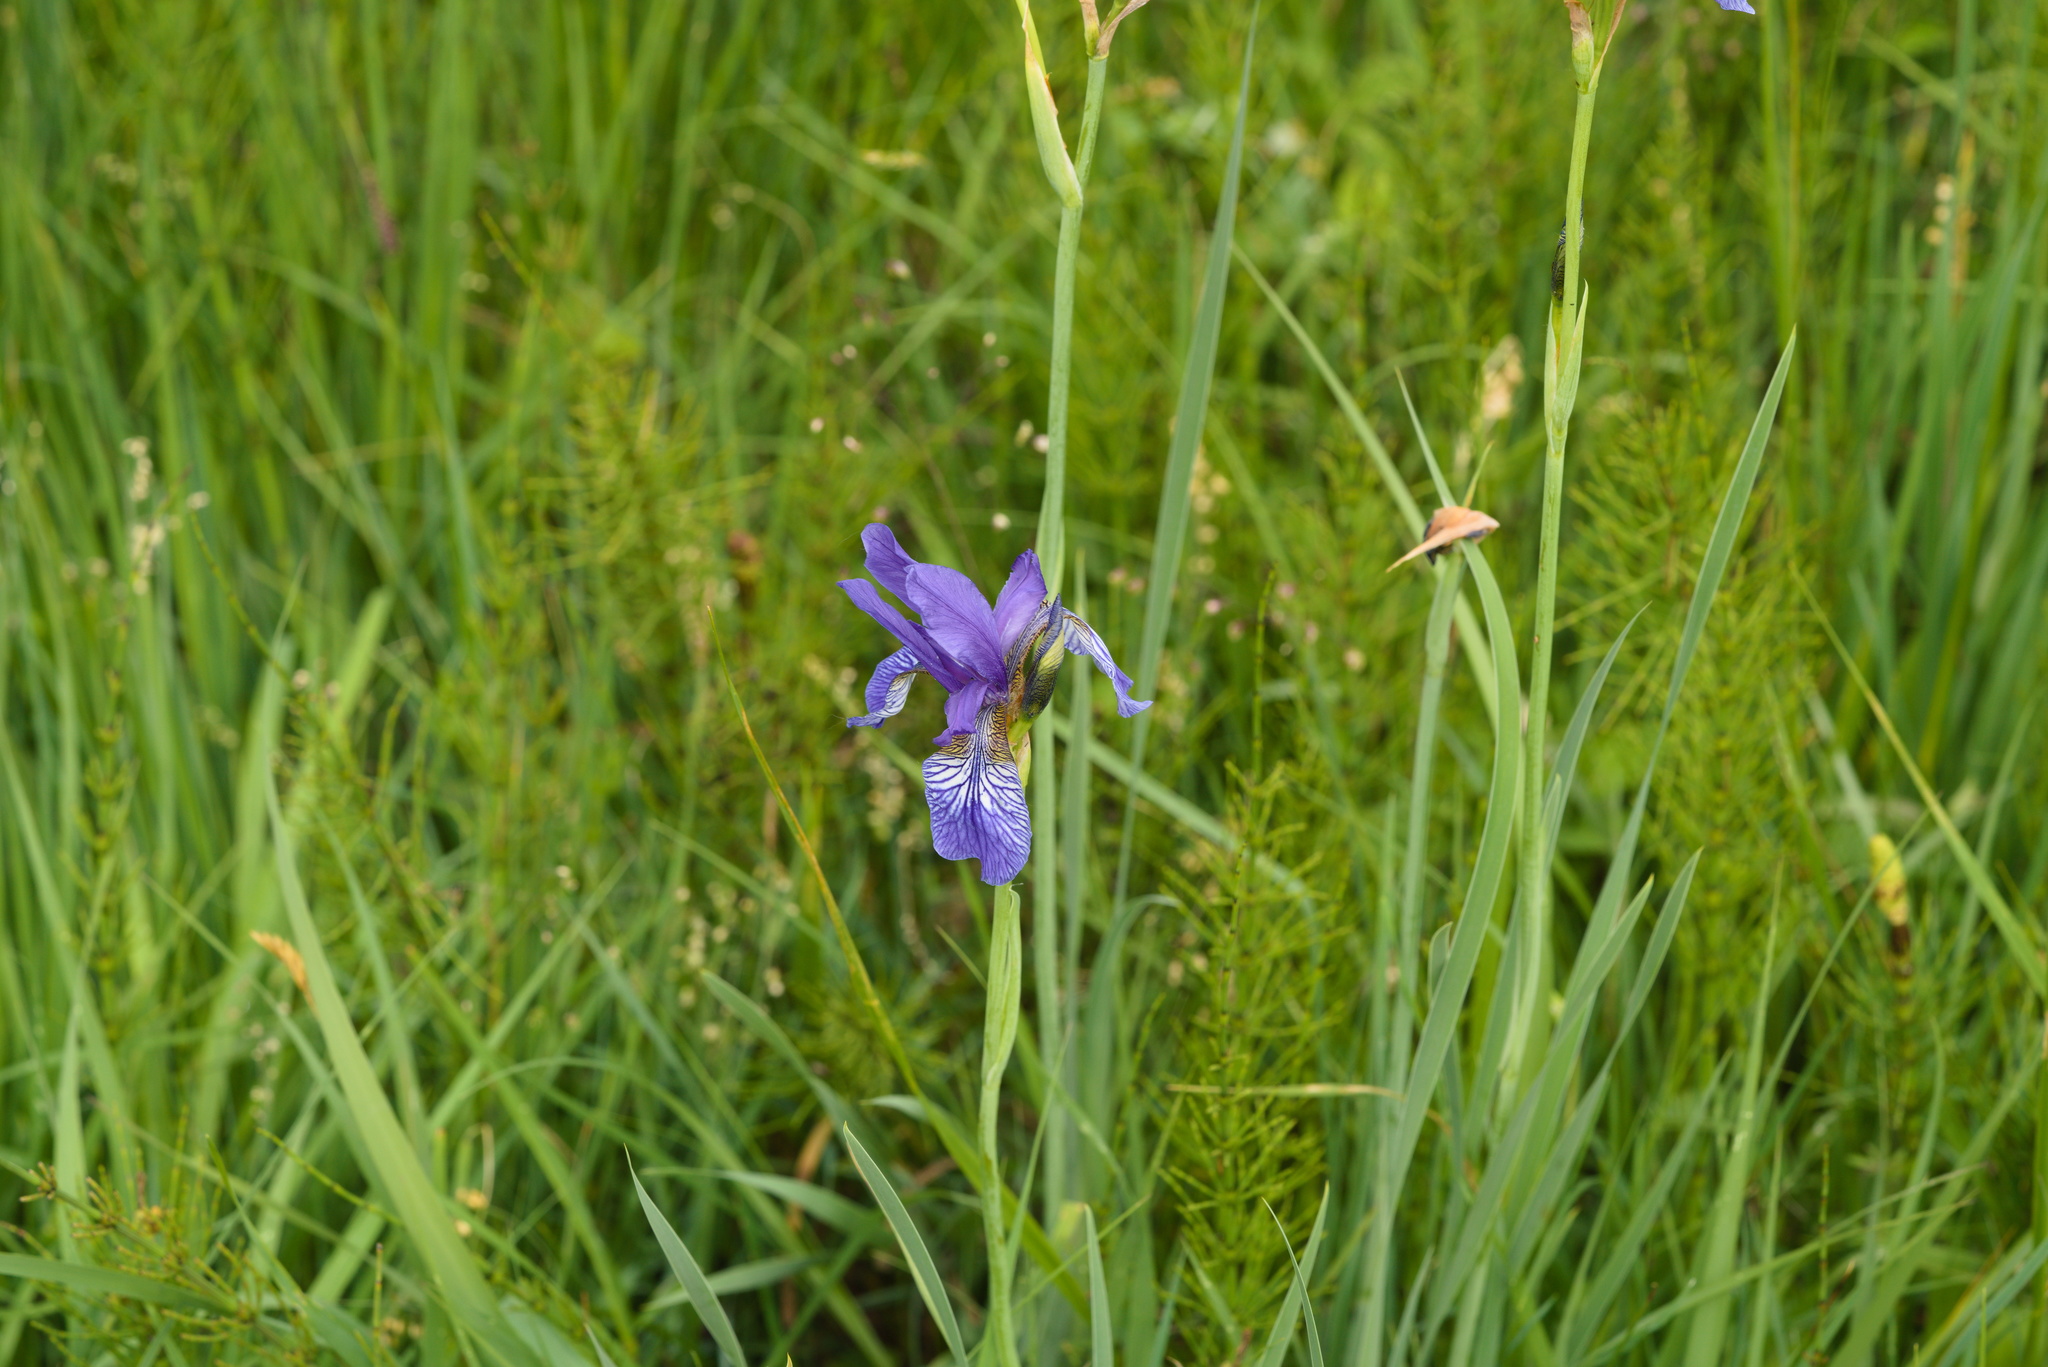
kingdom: Plantae
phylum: Tracheophyta
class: Liliopsida
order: Asparagales
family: Iridaceae
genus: Iris
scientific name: Iris sibirica
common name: Siberian iris
